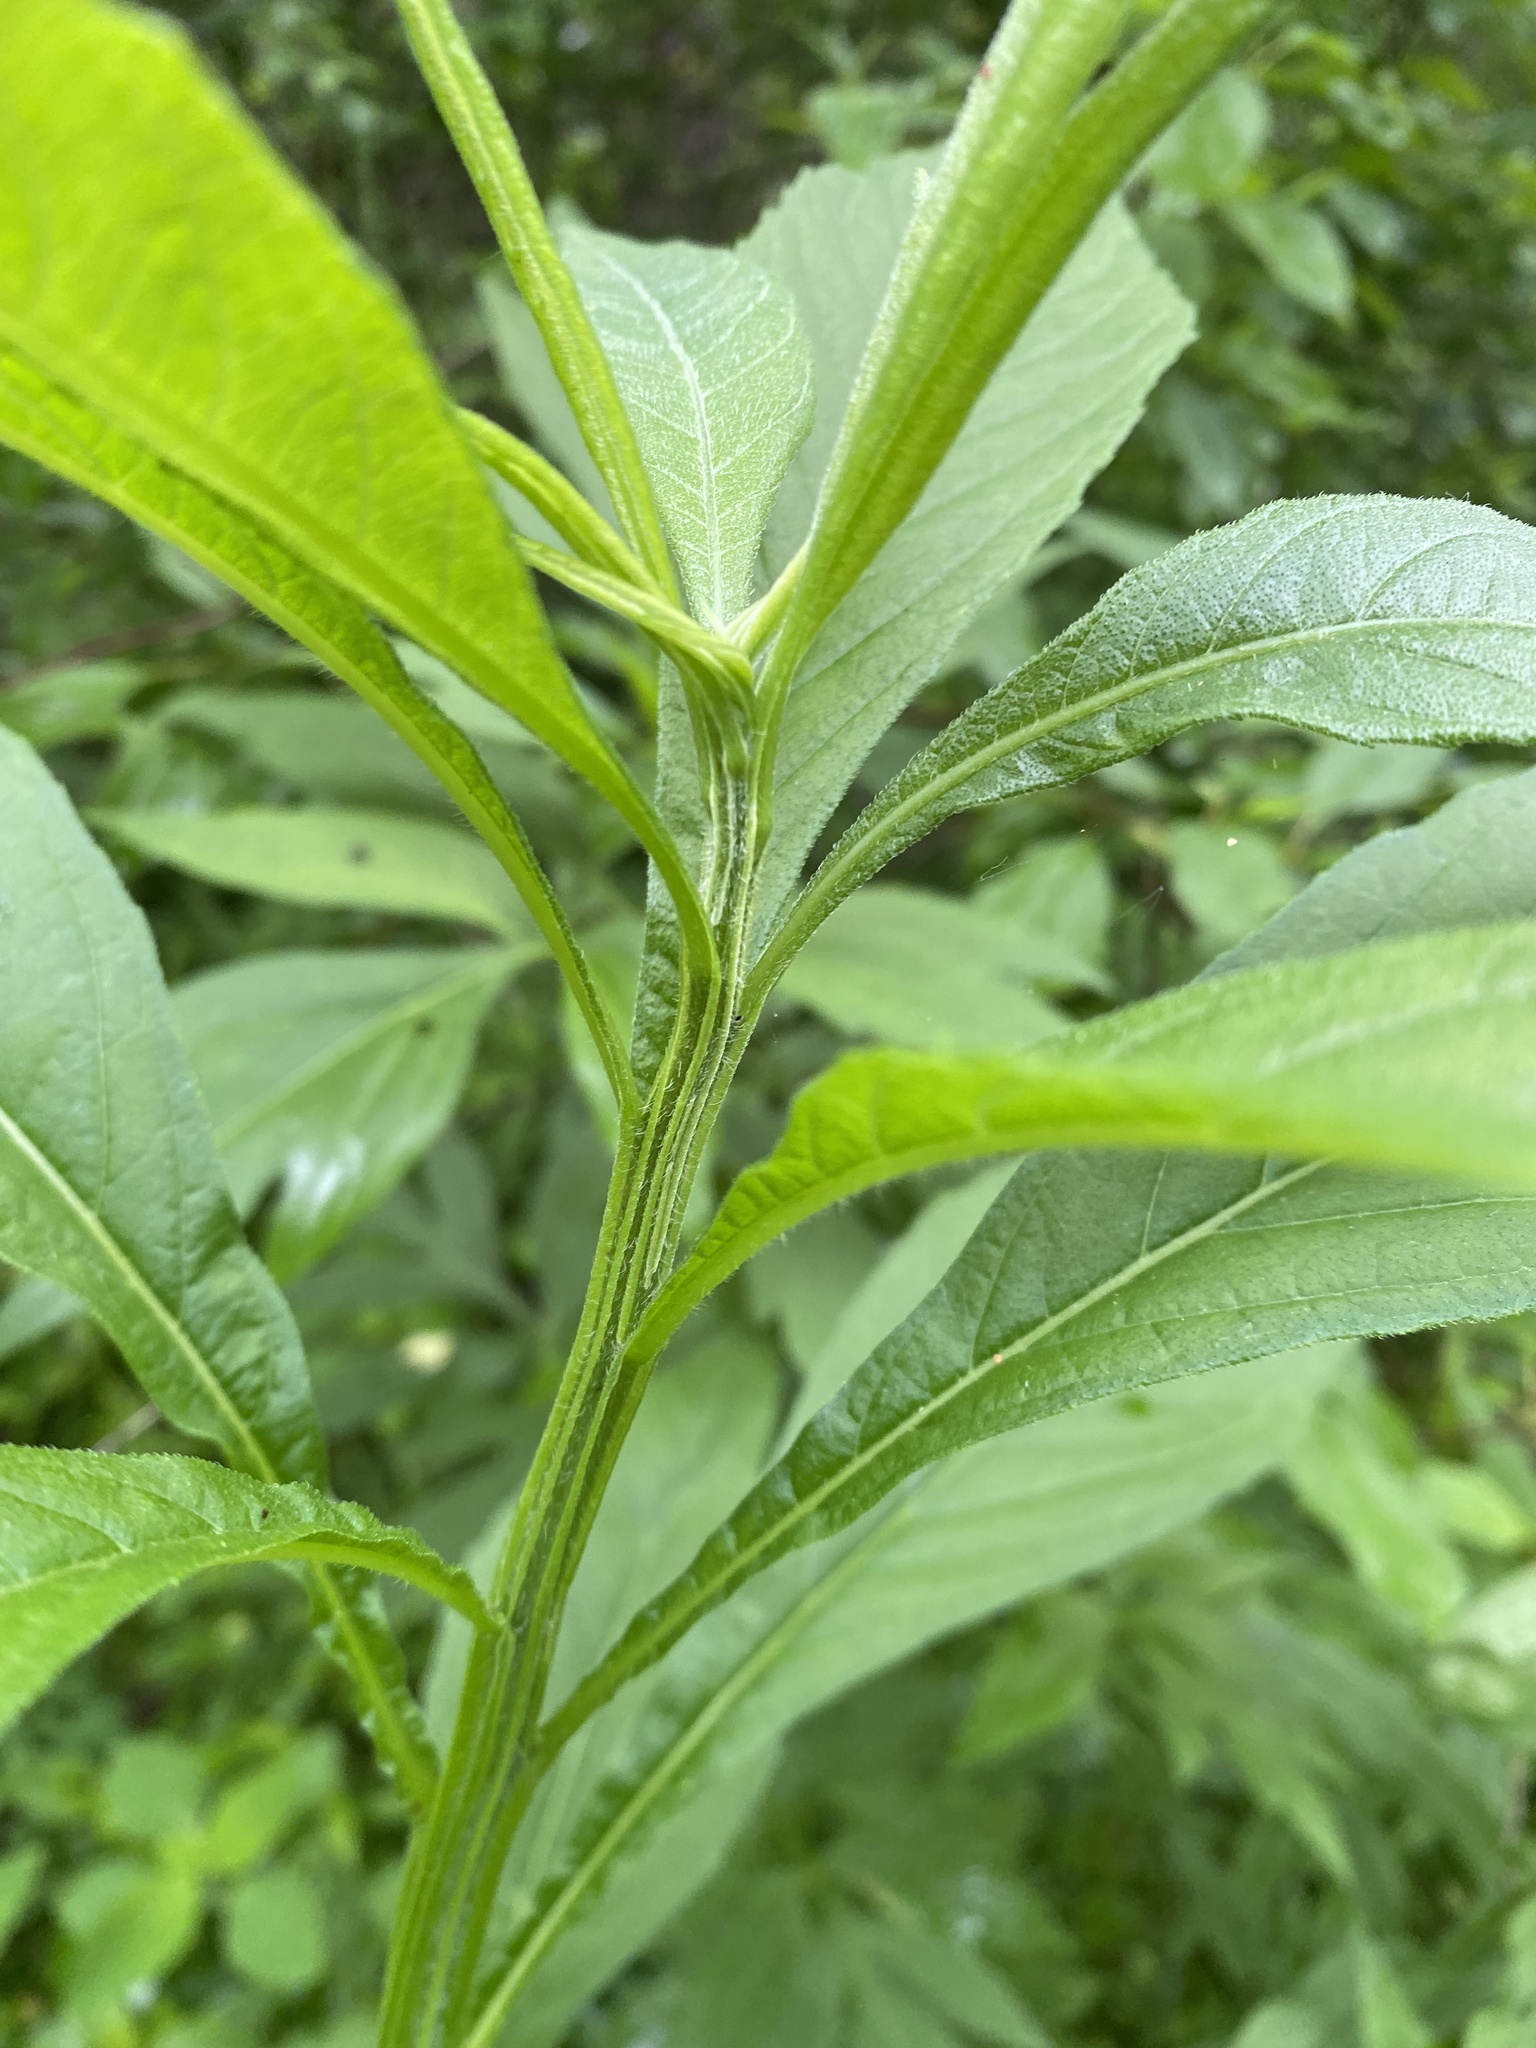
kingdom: Plantae
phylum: Tracheophyta
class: Magnoliopsida
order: Asterales
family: Asteraceae
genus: Verbesina
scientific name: Verbesina alternifolia
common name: Wingstem
